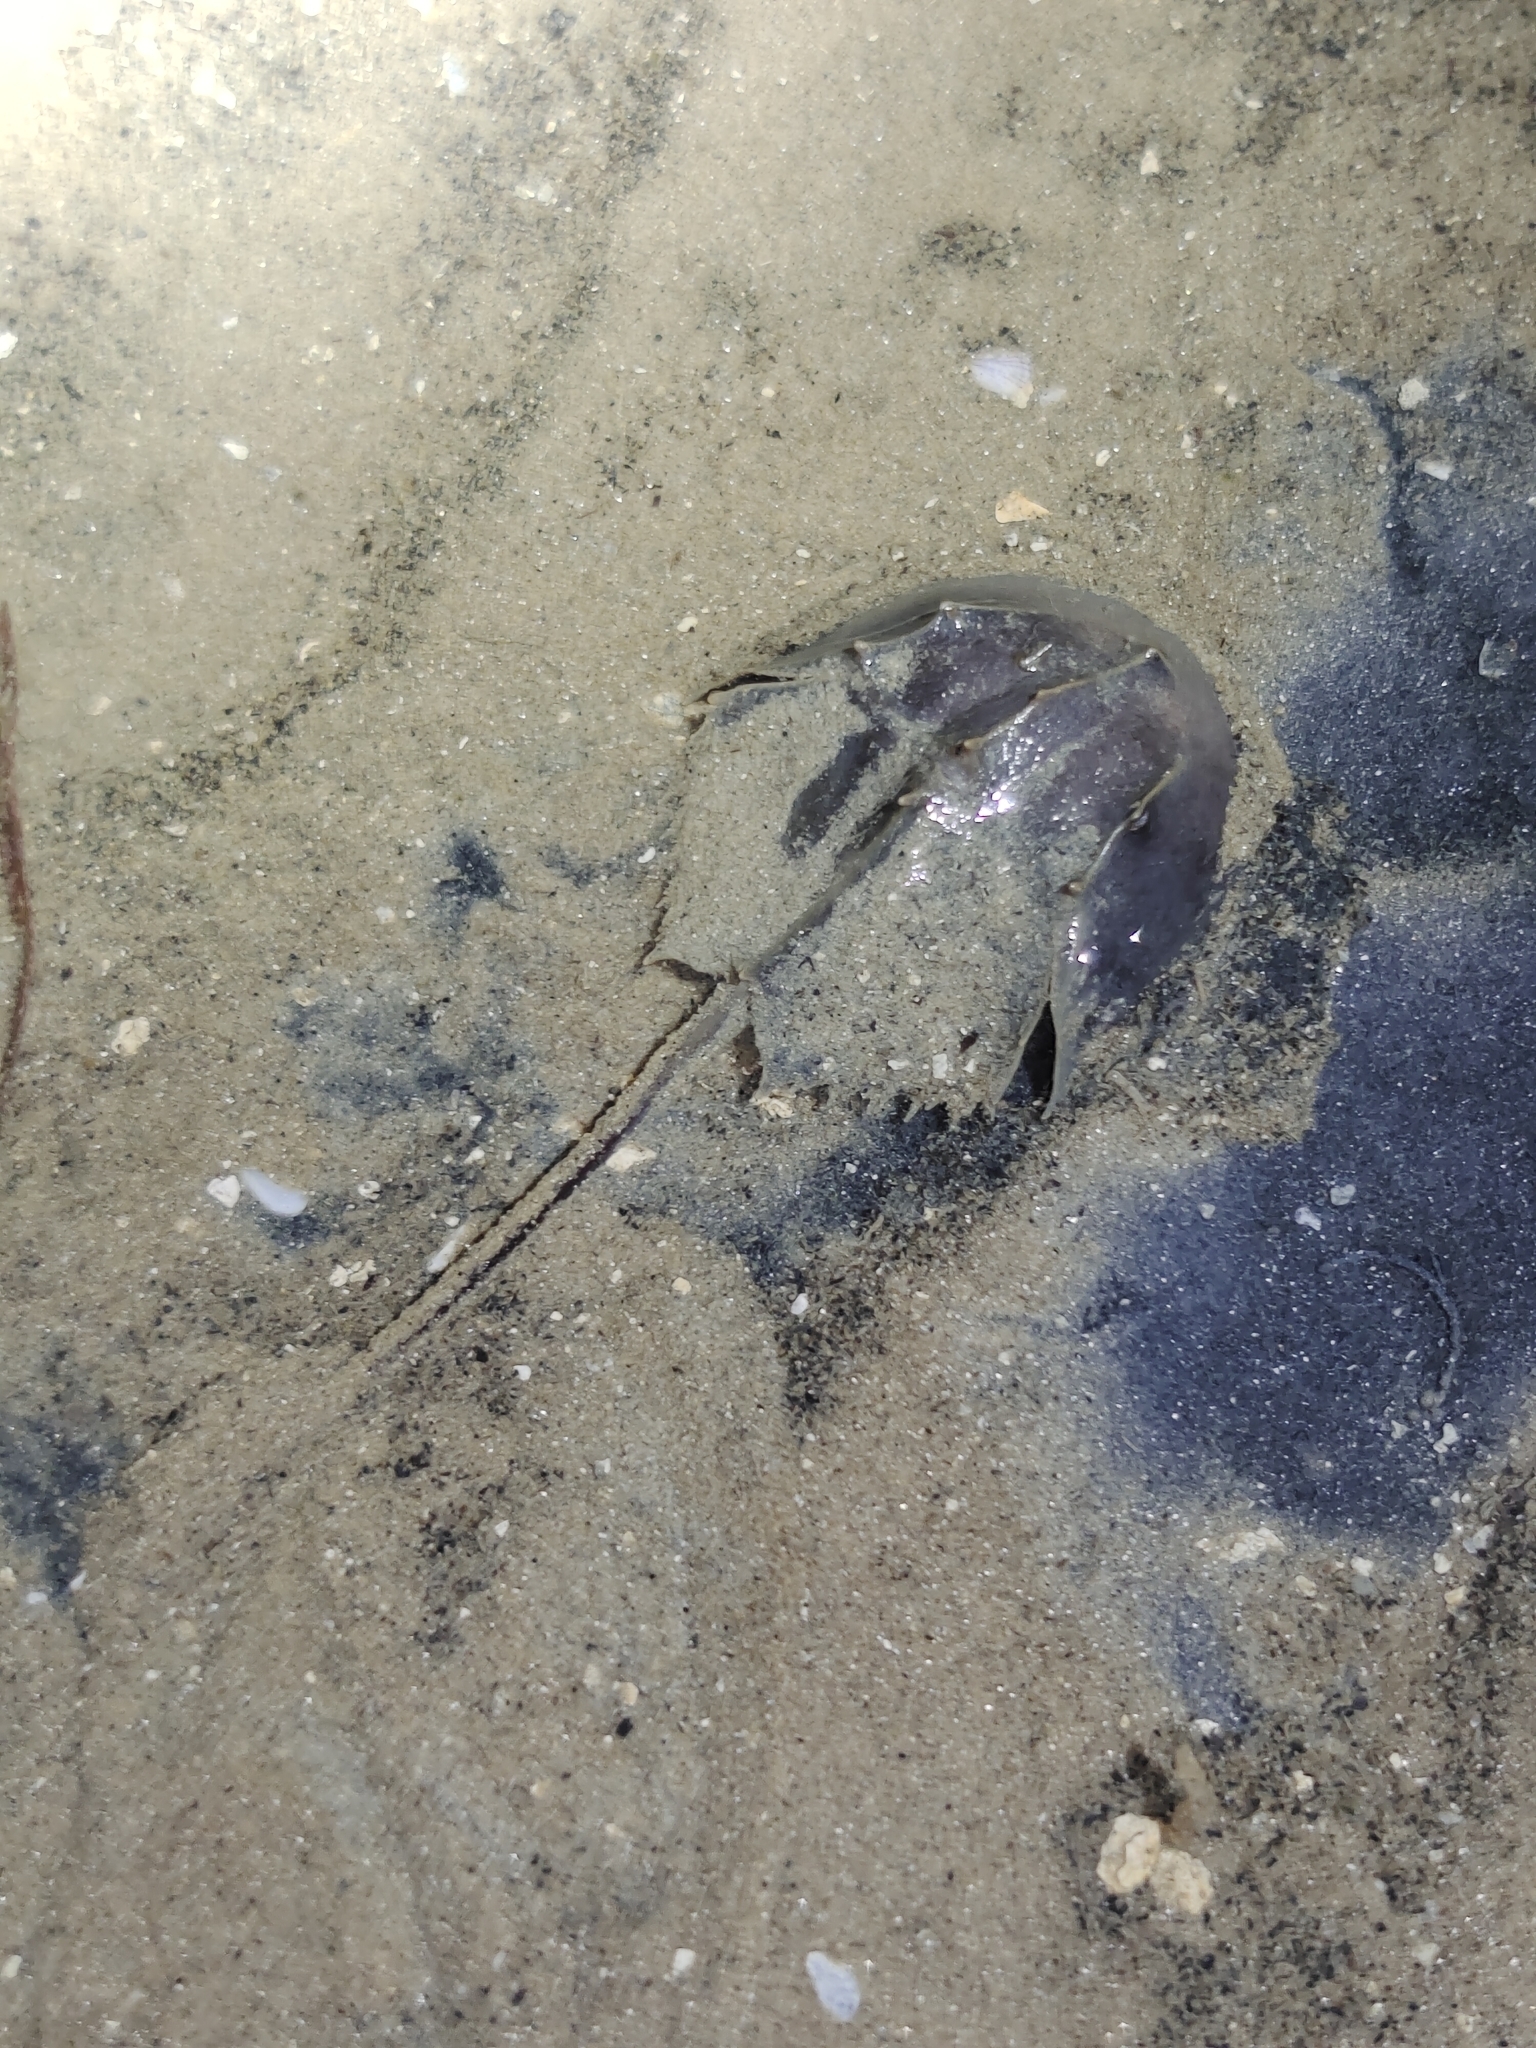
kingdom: Animalia
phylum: Arthropoda
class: Merostomata
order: Xiphosurida
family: Limulidae
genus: Tachypleus
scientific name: Tachypleus gigas
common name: Coastal horseshoe crab
